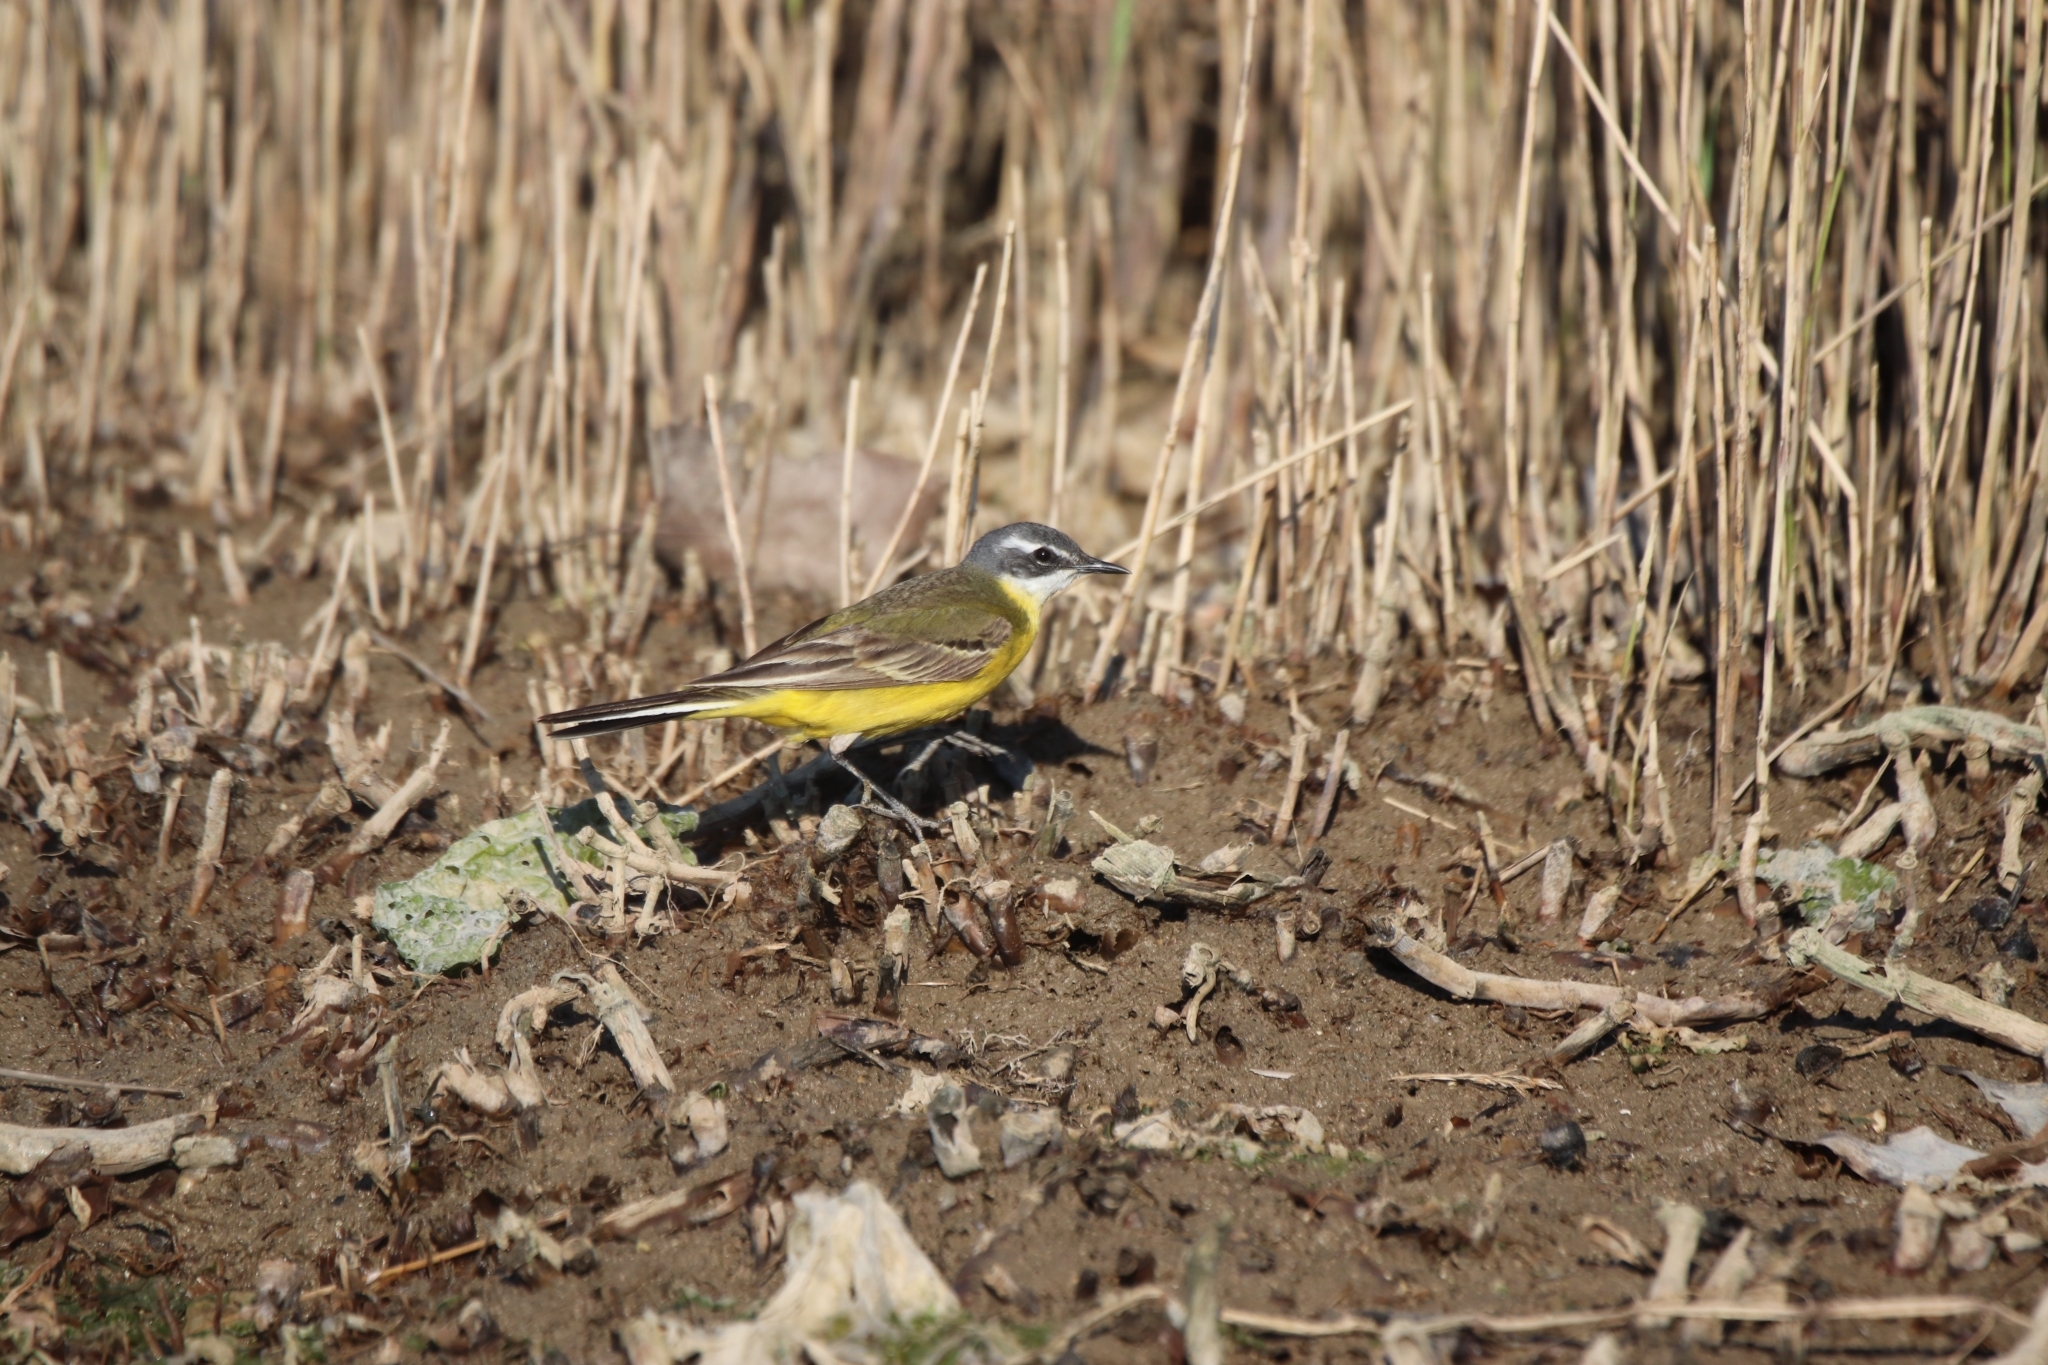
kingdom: Animalia
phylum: Chordata
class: Aves
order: Passeriformes
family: Motacillidae
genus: Motacilla
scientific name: Motacilla flava
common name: Western yellow wagtail
